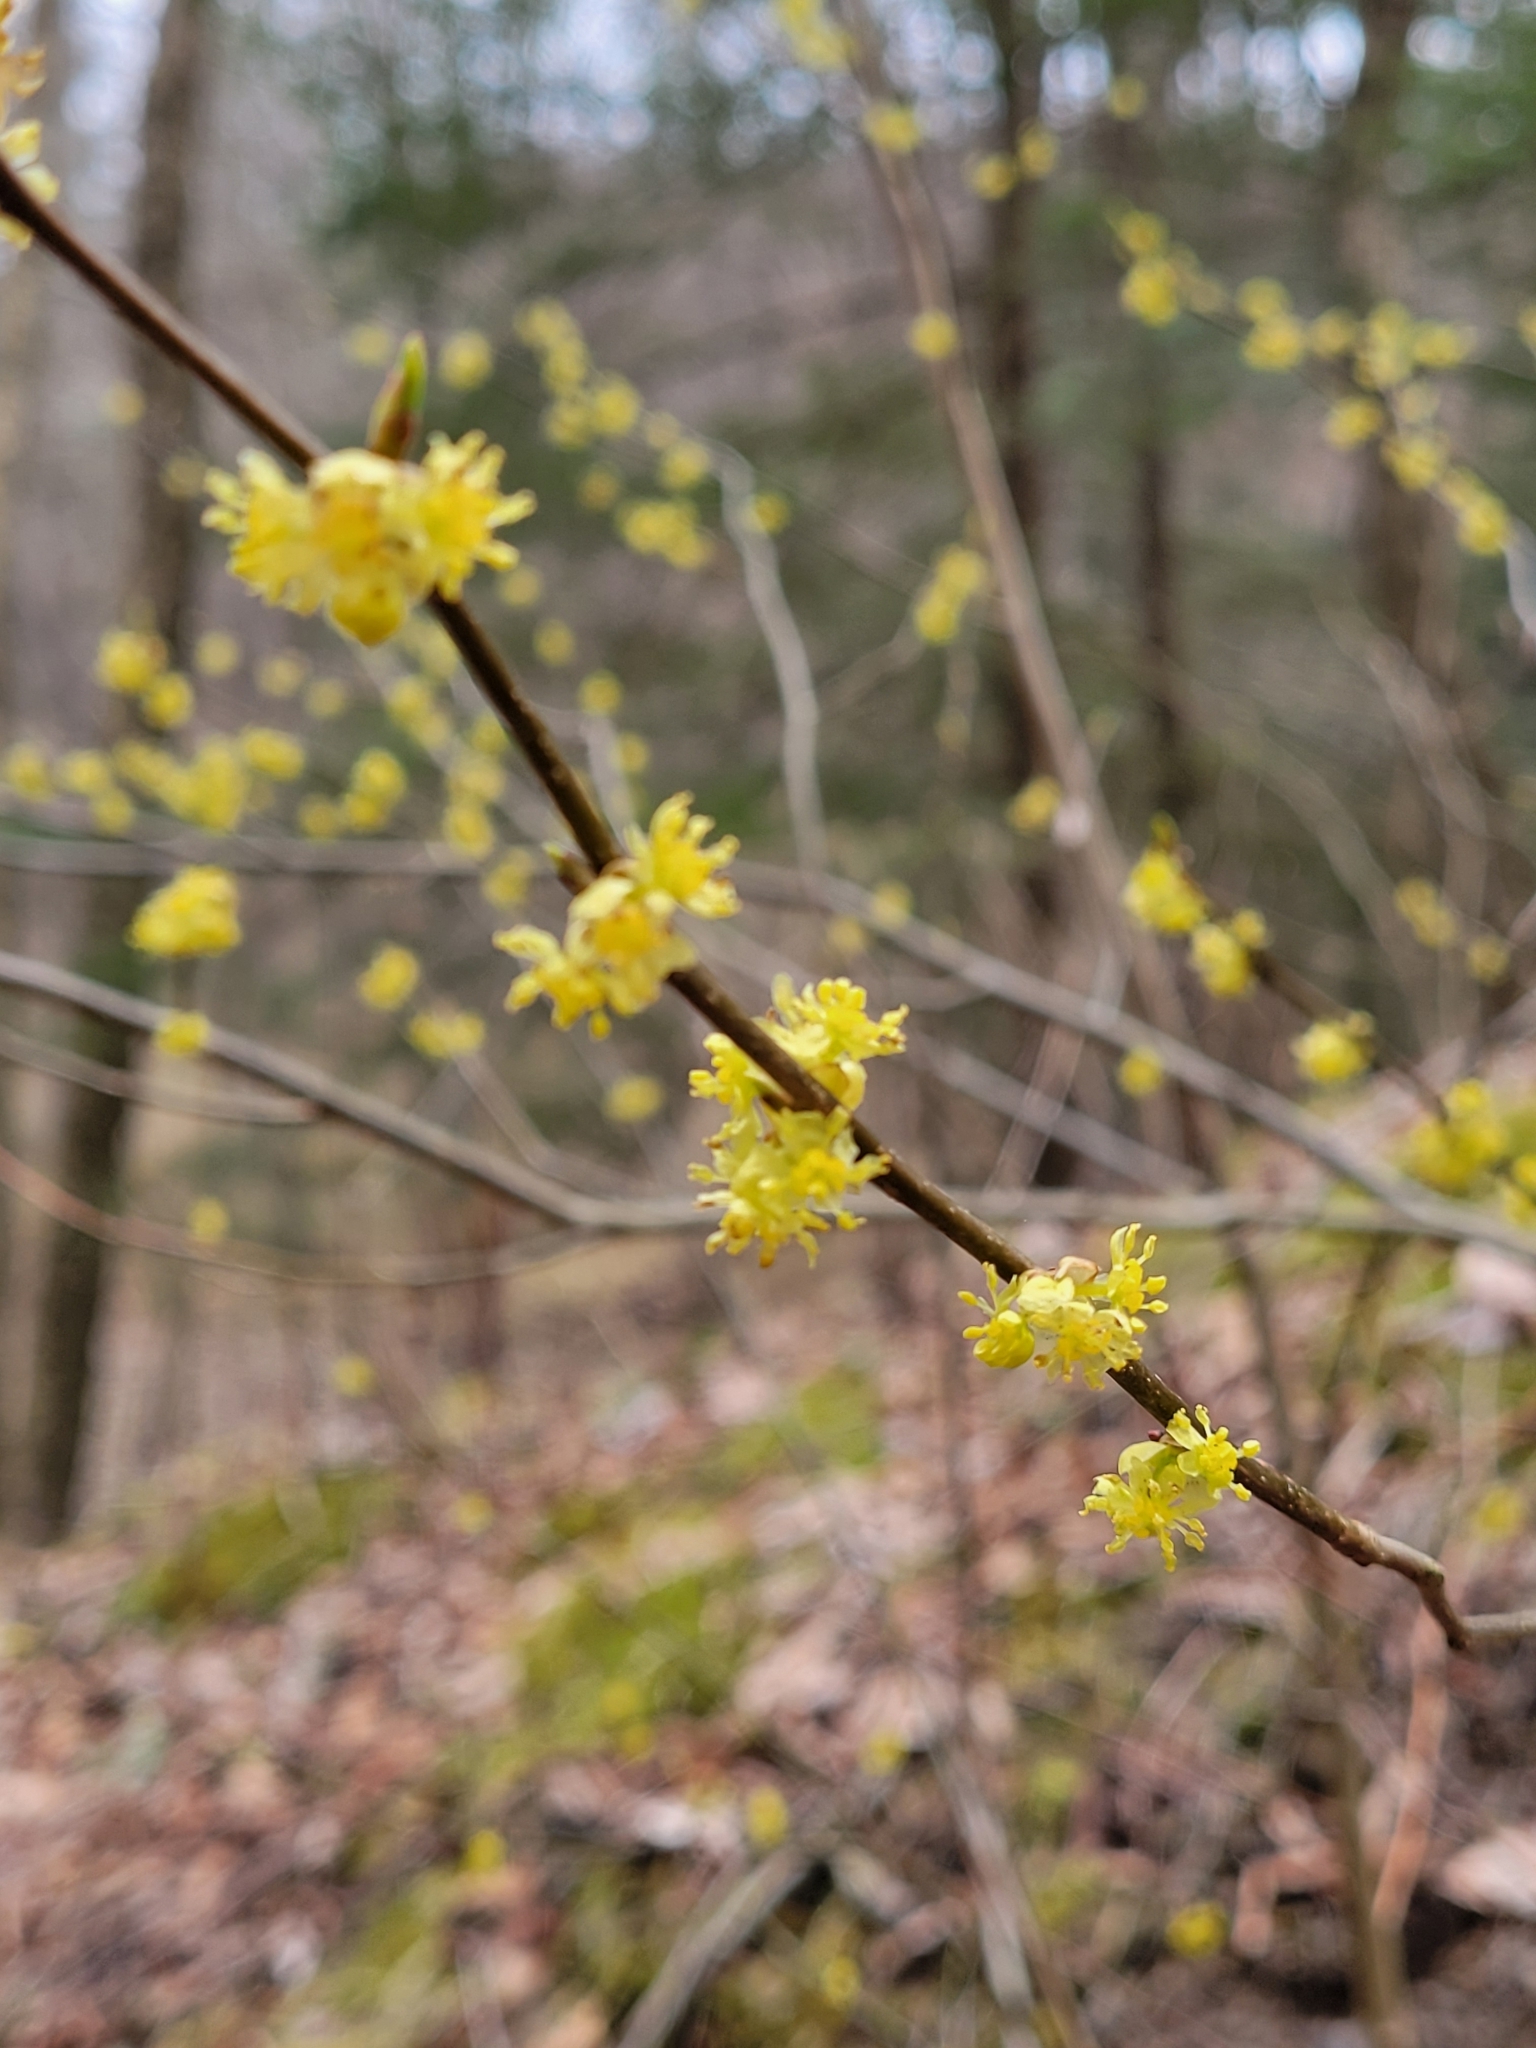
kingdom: Plantae
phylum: Tracheophyta
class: Magnoliopsida
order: Laurales
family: Lauraceae
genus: Lindera
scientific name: Lindera benzoin
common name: Spicebush
